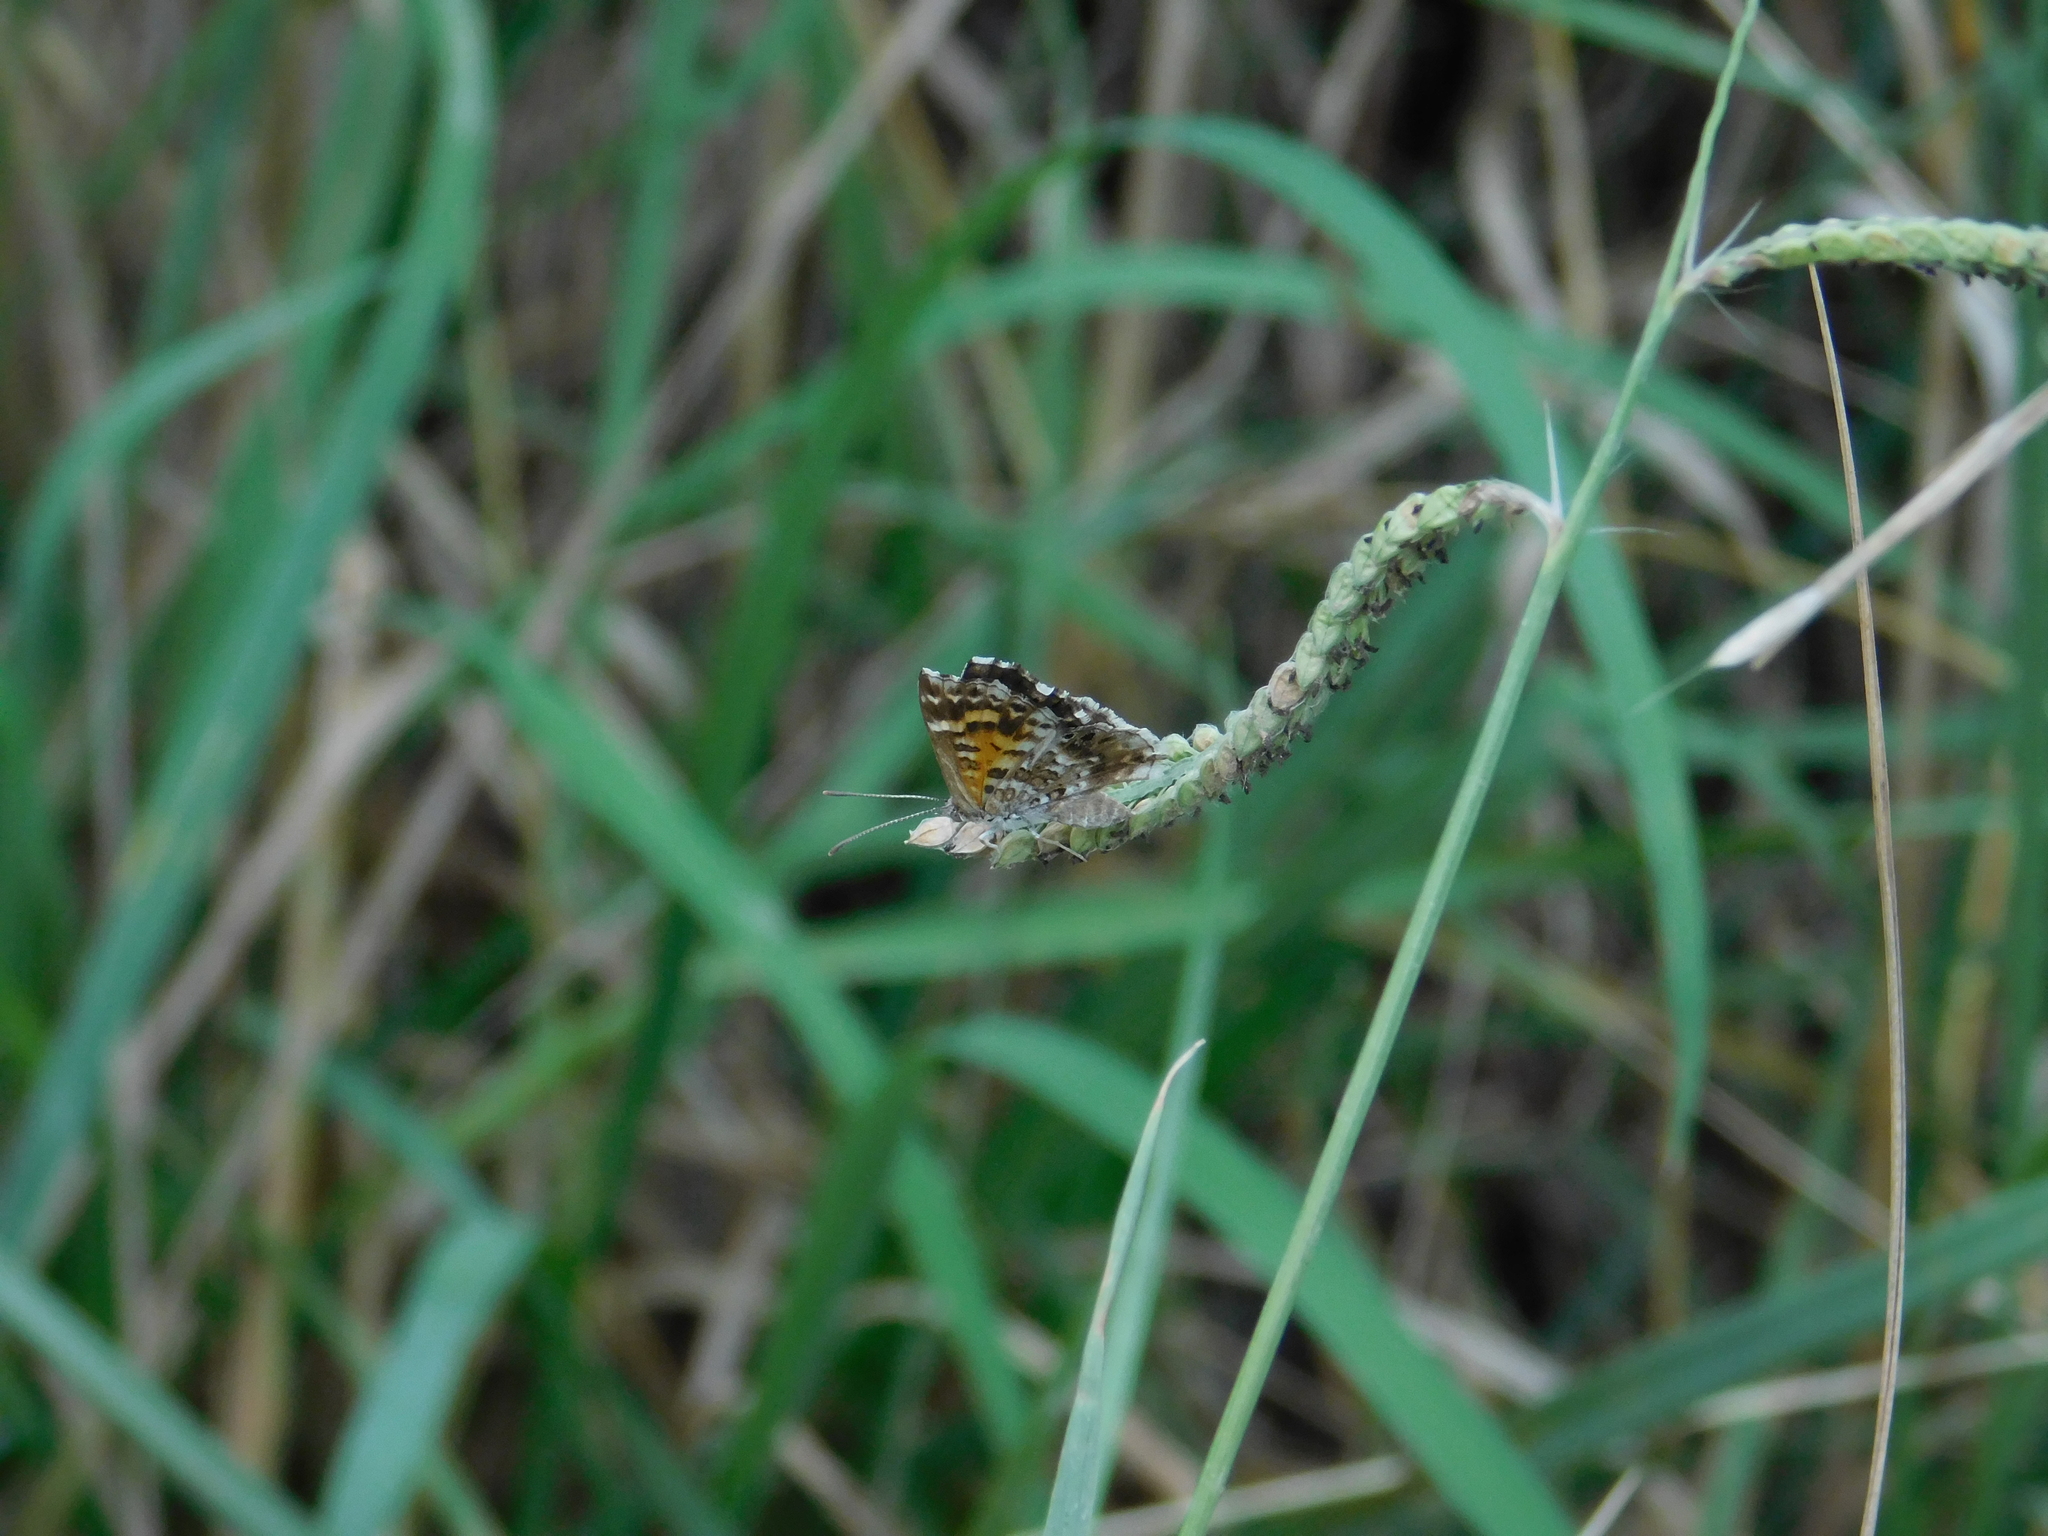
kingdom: Animalia
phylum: Arthropoda
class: Insecta
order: Lepidoptera
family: Lycaenidae
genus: Aricoris
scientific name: Aricoris signata
